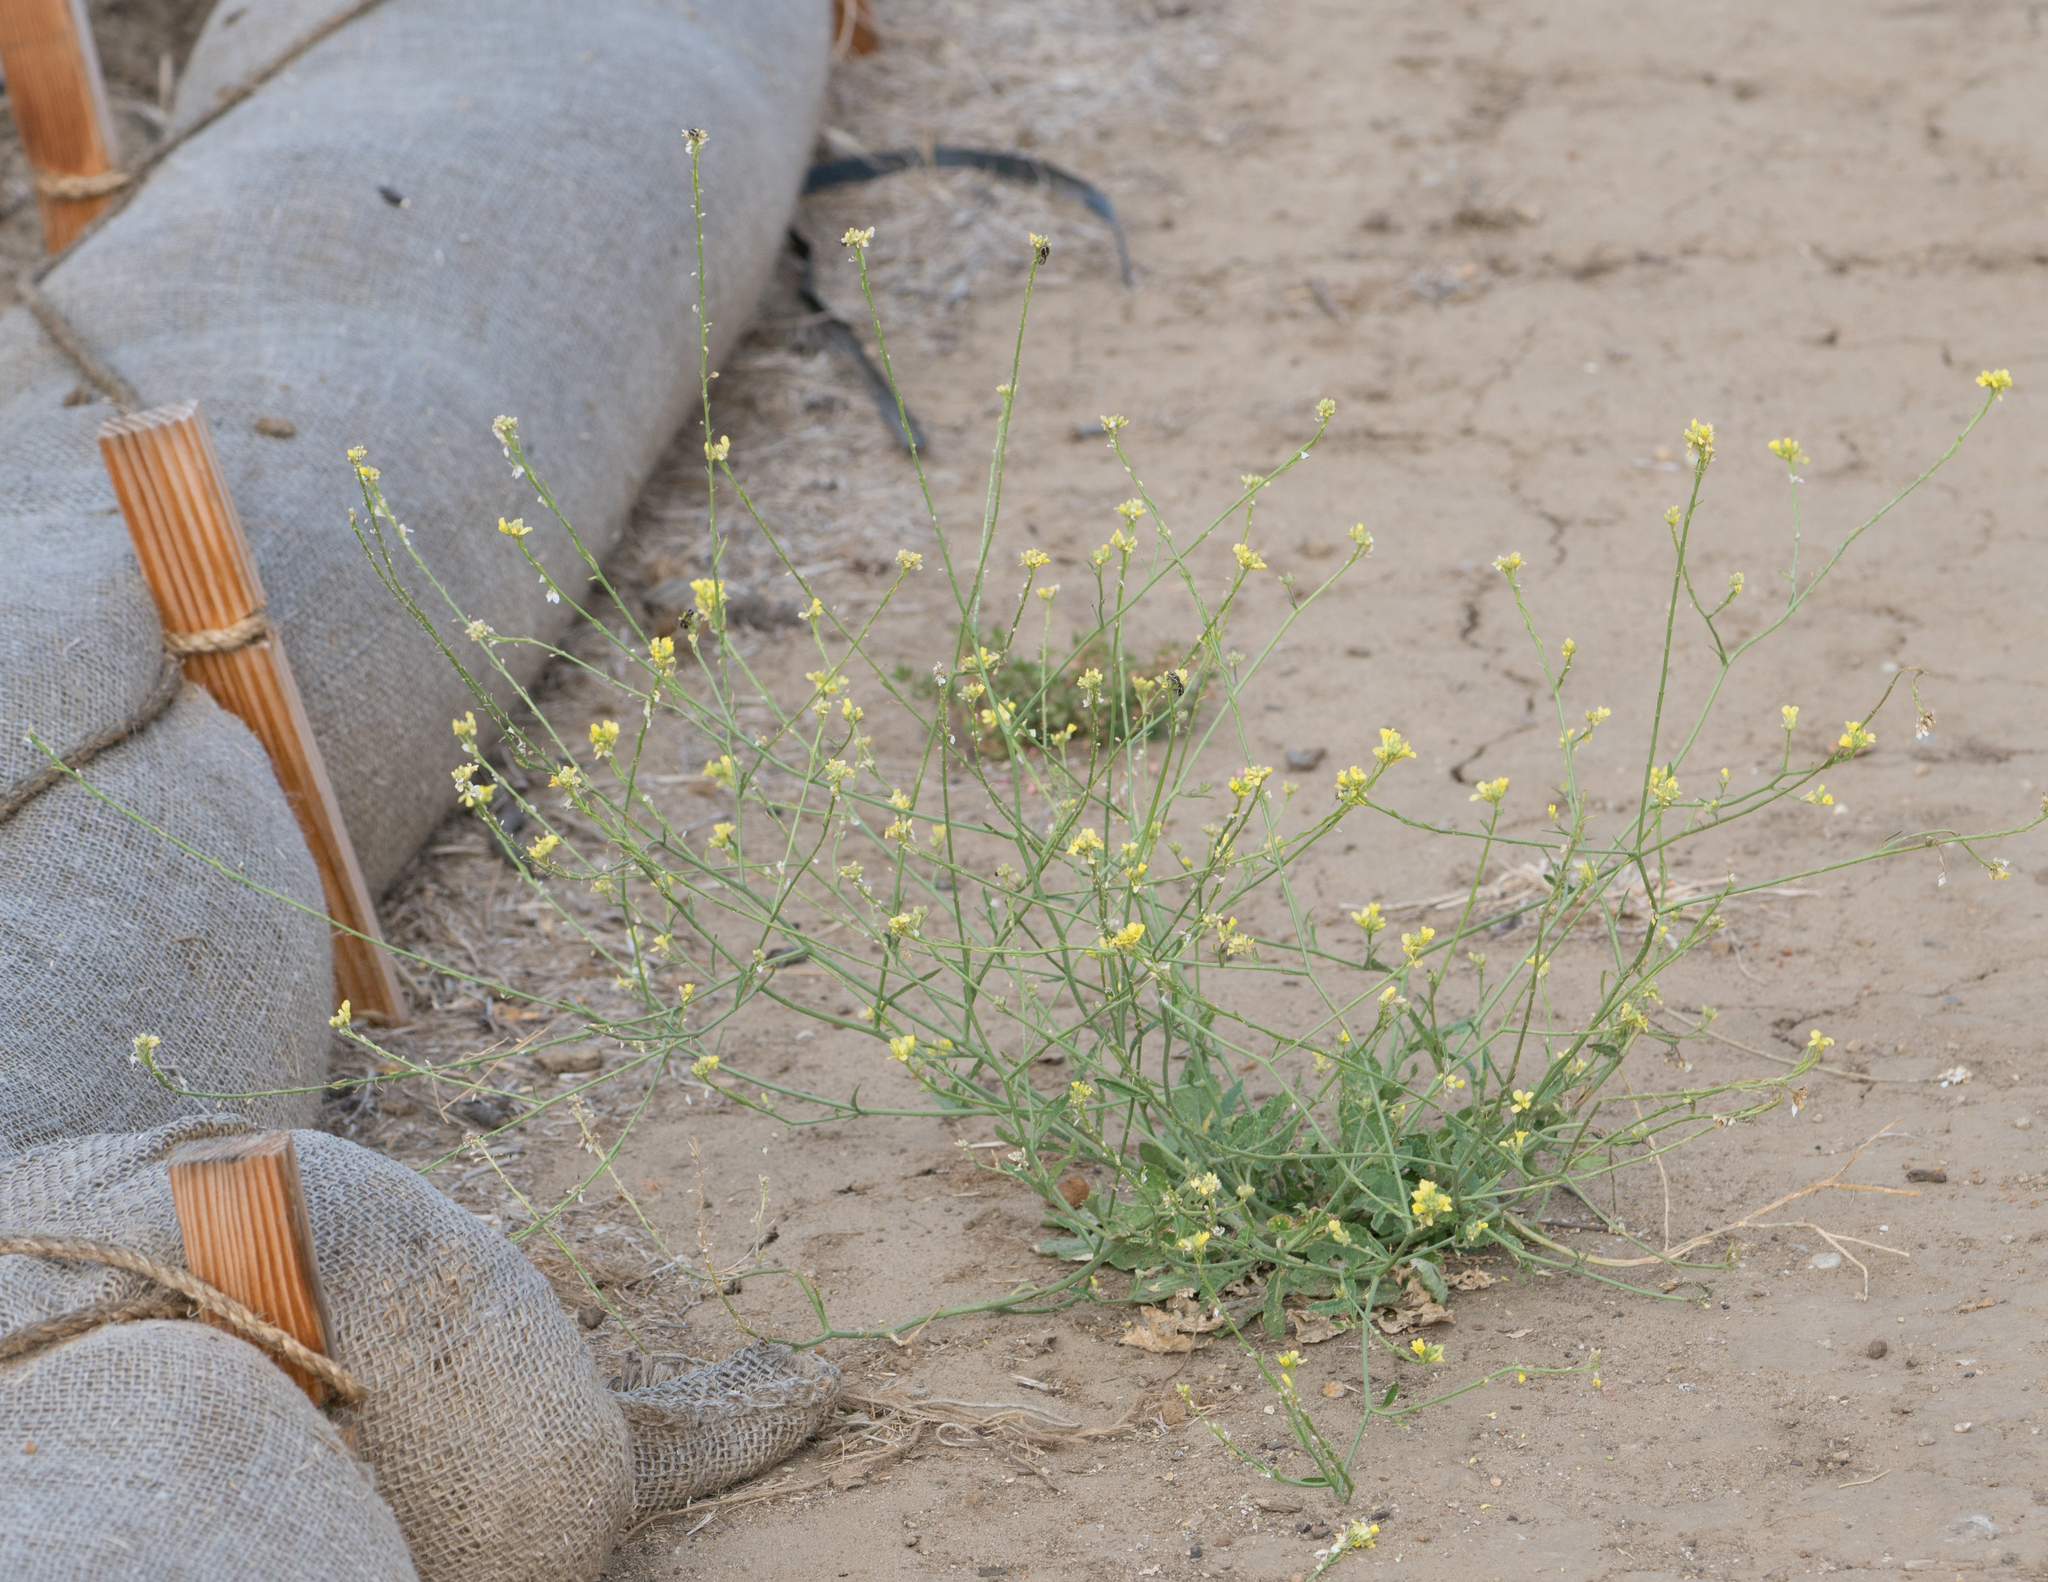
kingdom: Plantae
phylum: Tracheophyta
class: Magnoliopsida
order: Brassicales
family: Brassicaceae
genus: Hirschfeldia
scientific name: Hirschfeldia incana
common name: Hoary mustard
